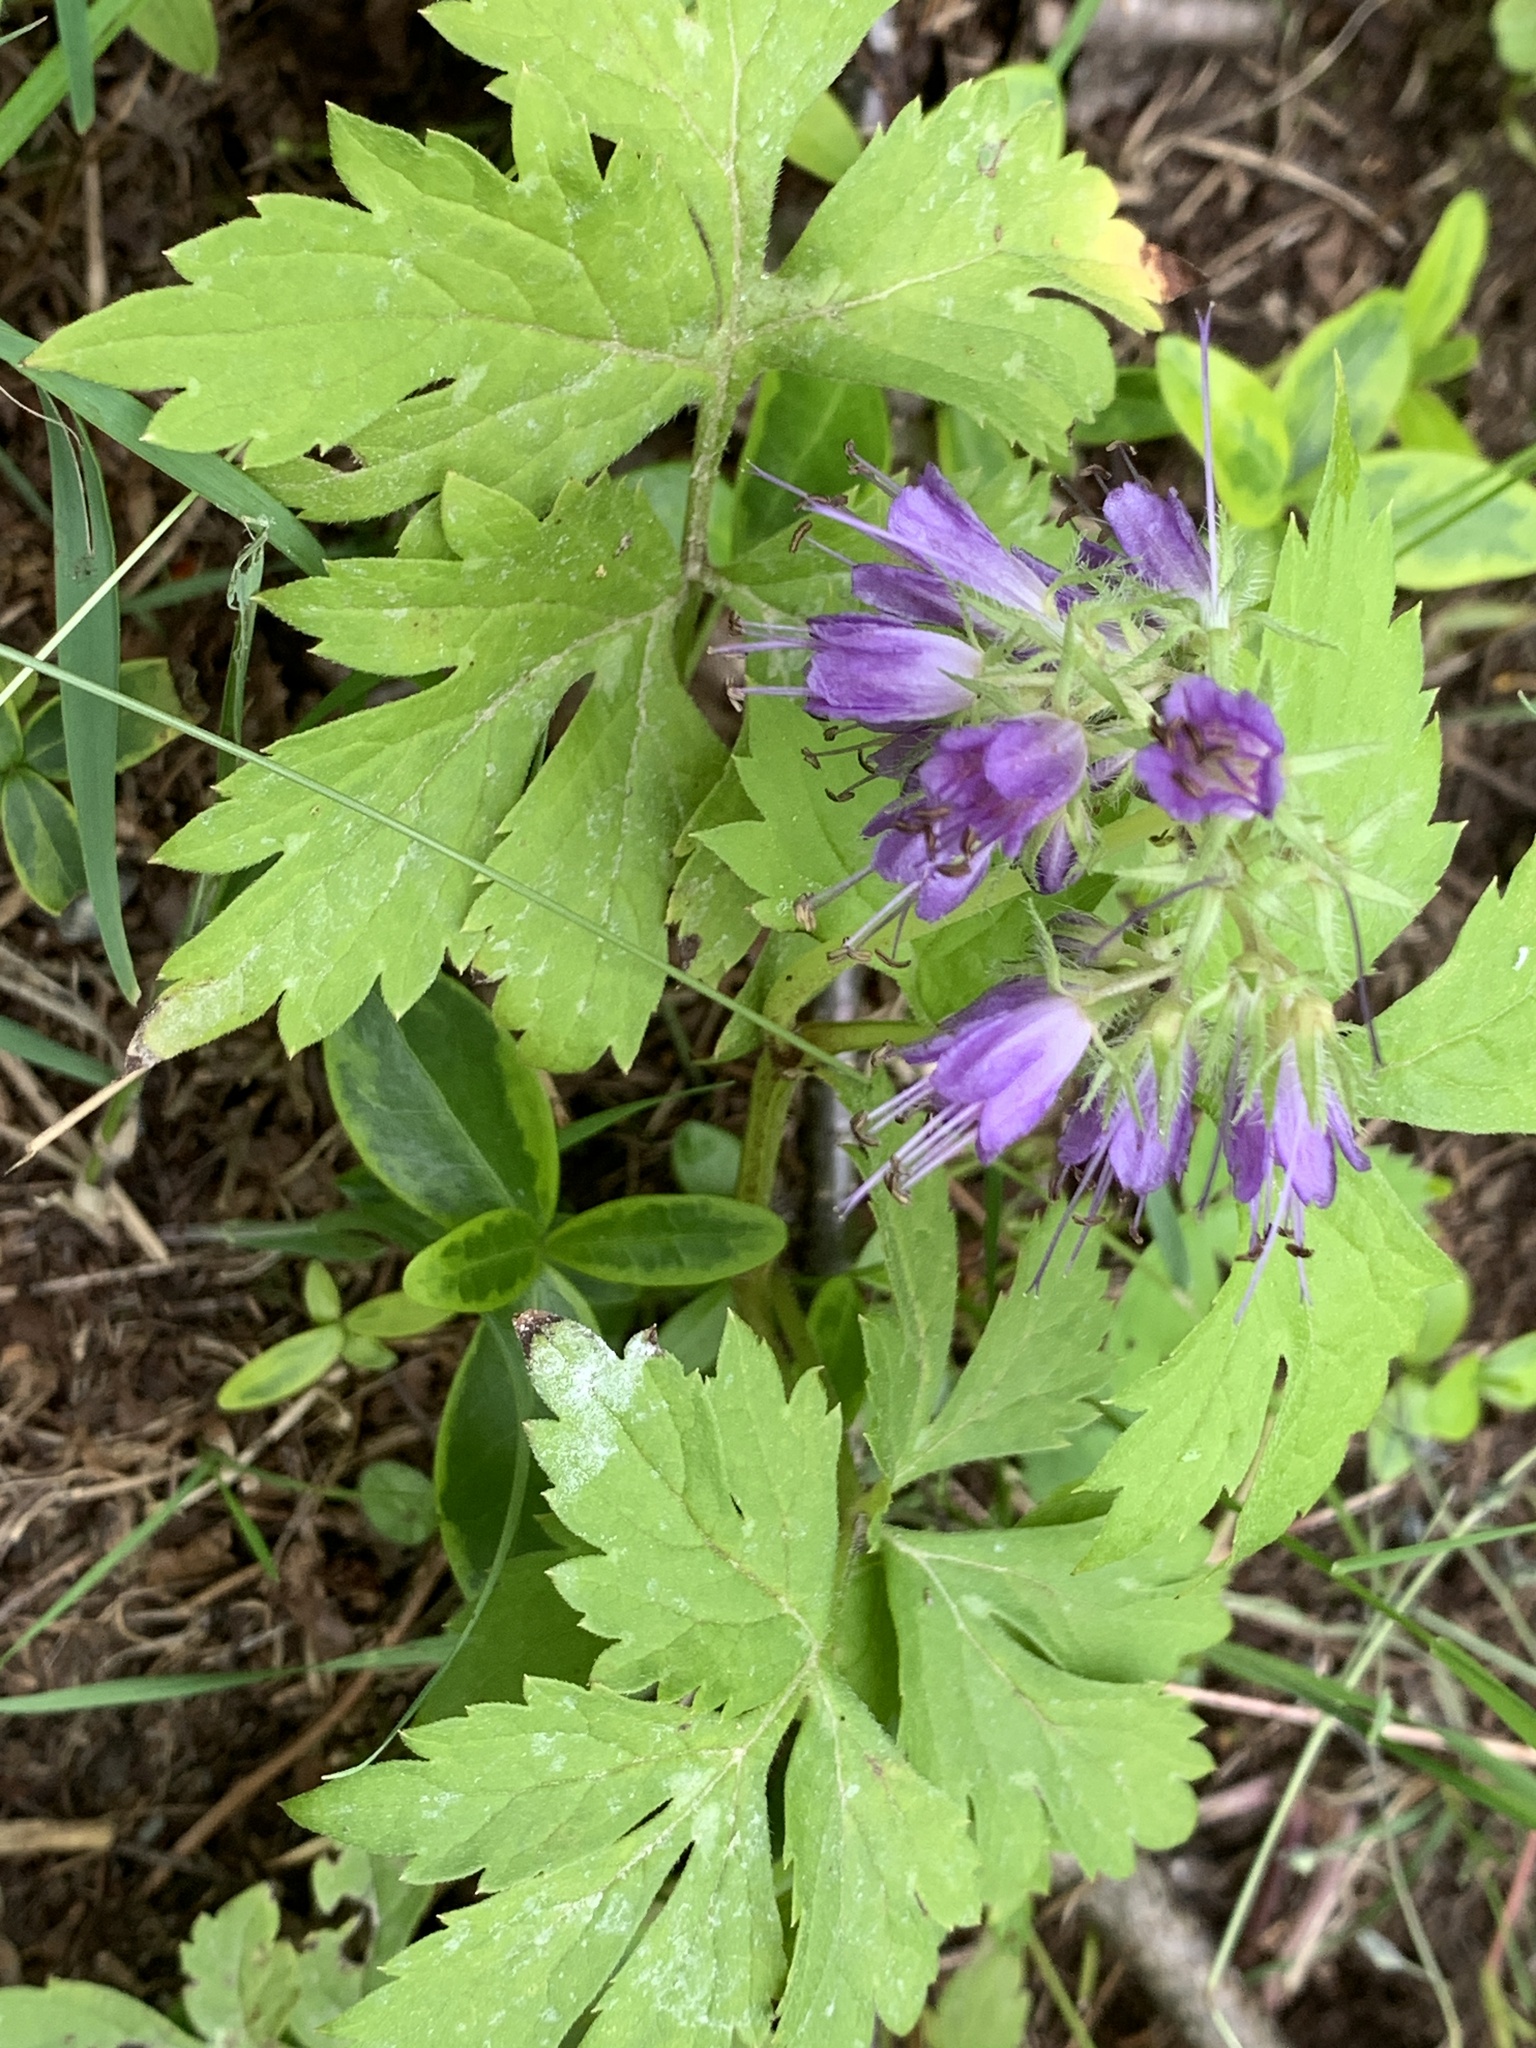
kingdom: Plantae
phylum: Tracheophyta
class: Magnoliopsida
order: Boraginales
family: Hydrophyllaceae
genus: Hydrophyllum
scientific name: Hydrophyllum virginianum
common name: Virginia waterleaf
